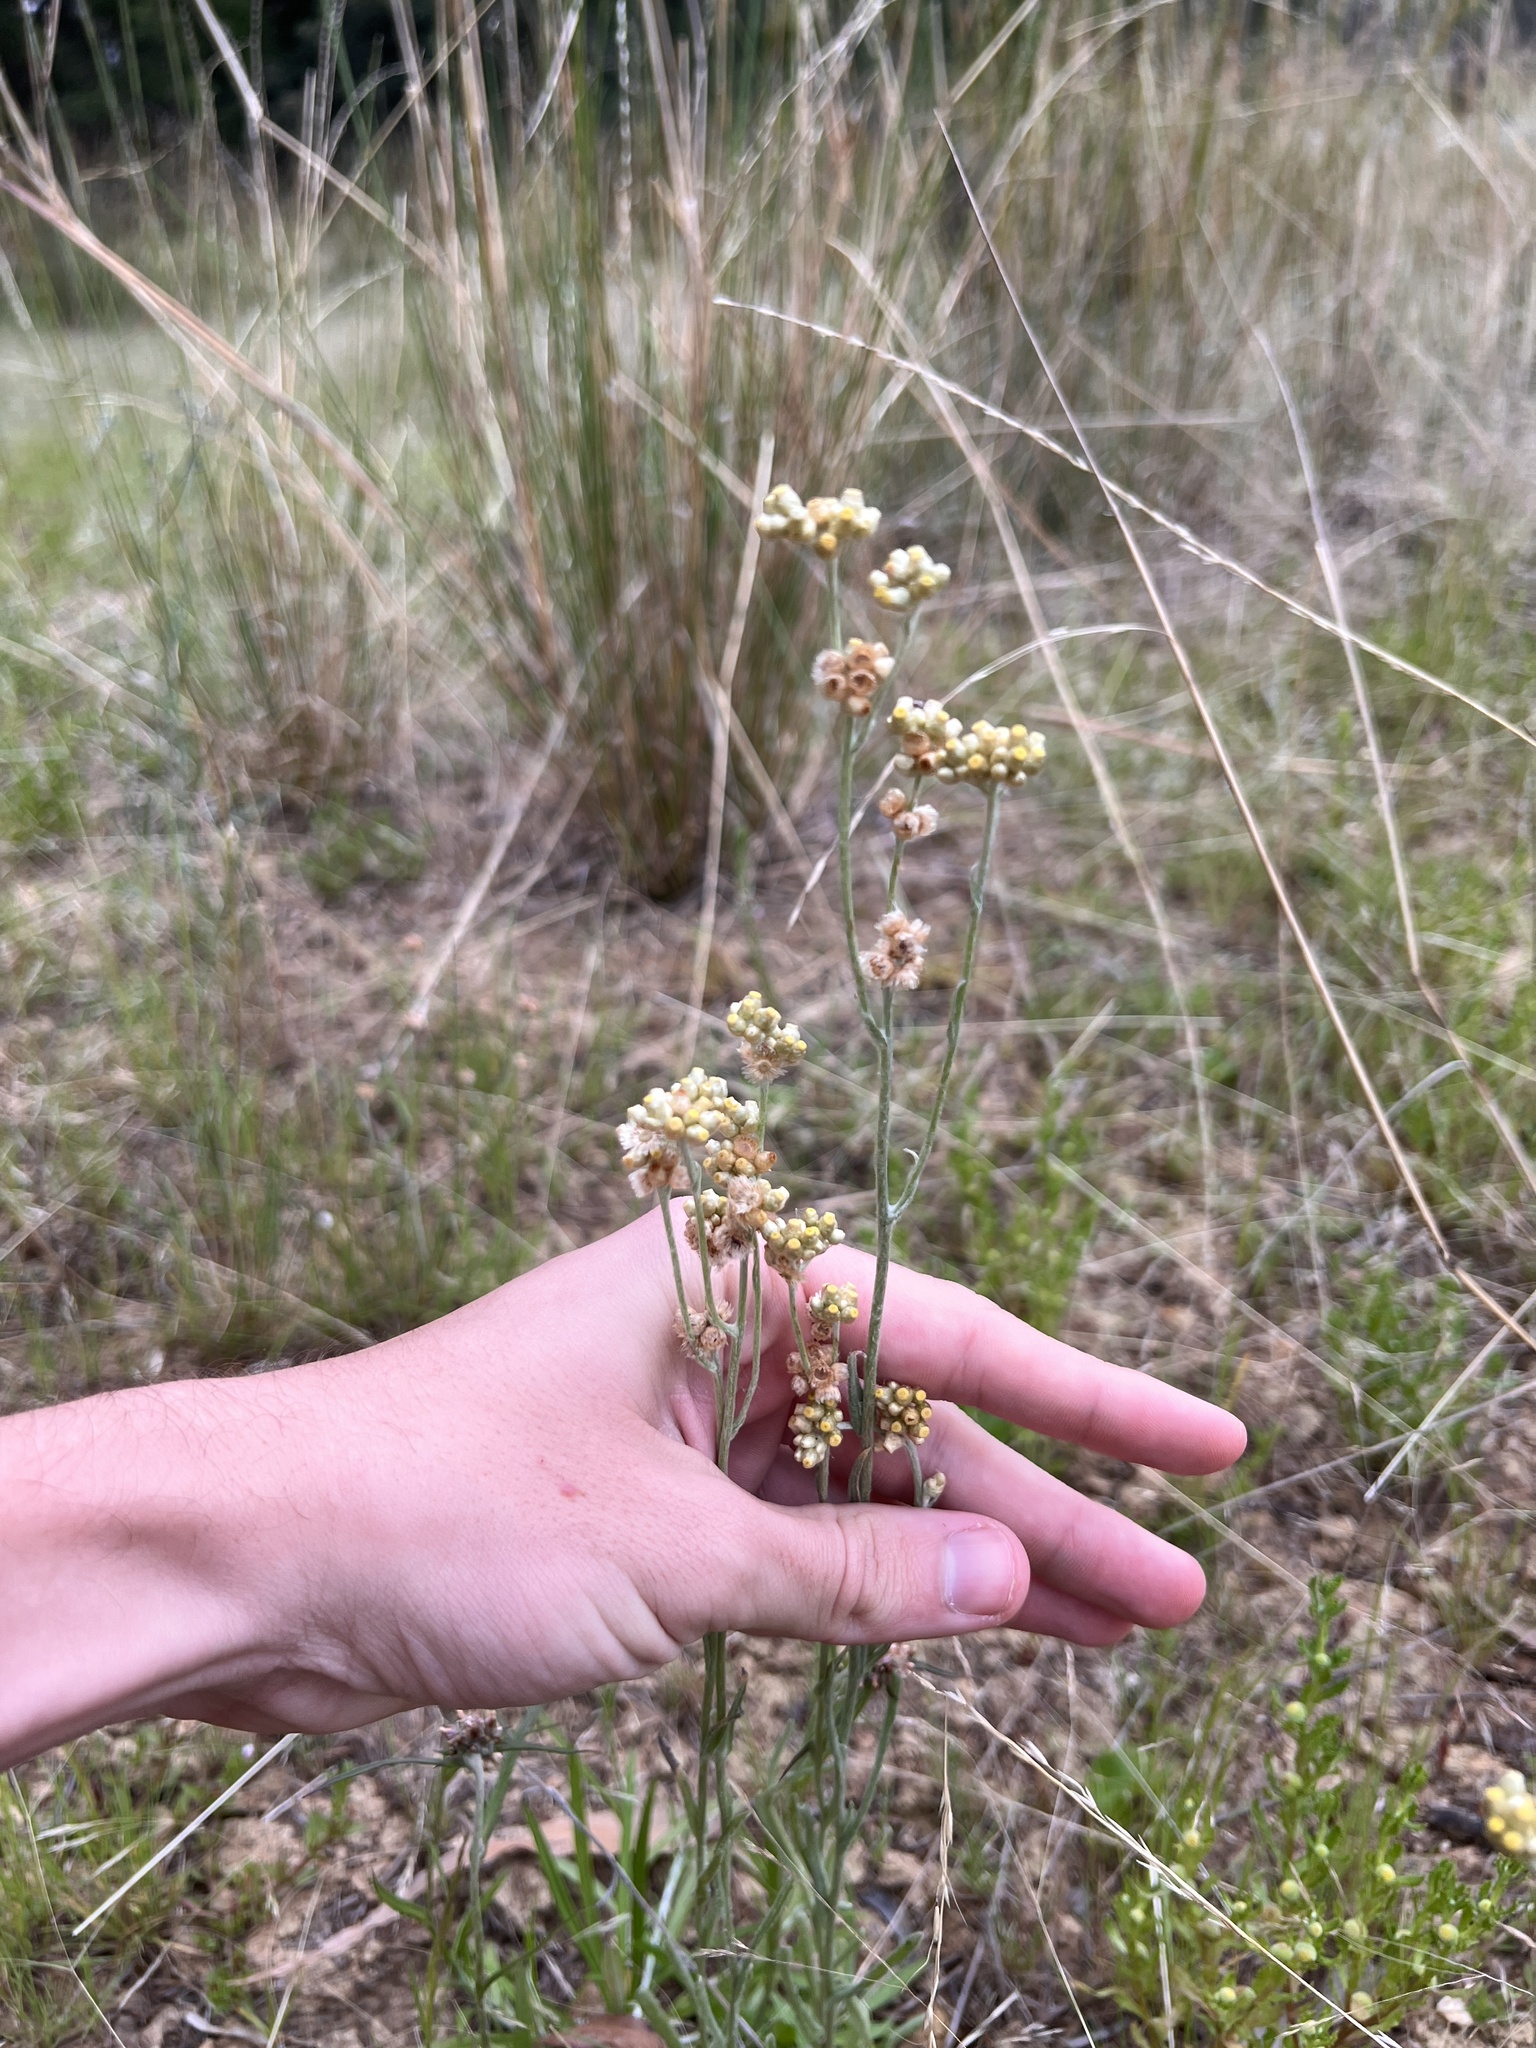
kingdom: Plantae
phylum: Tracheophyta
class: Magnoliopsida
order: Asterales
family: Asteraceae
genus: Helichrysum
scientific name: Helichrysum luteoalbum
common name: Daisy
